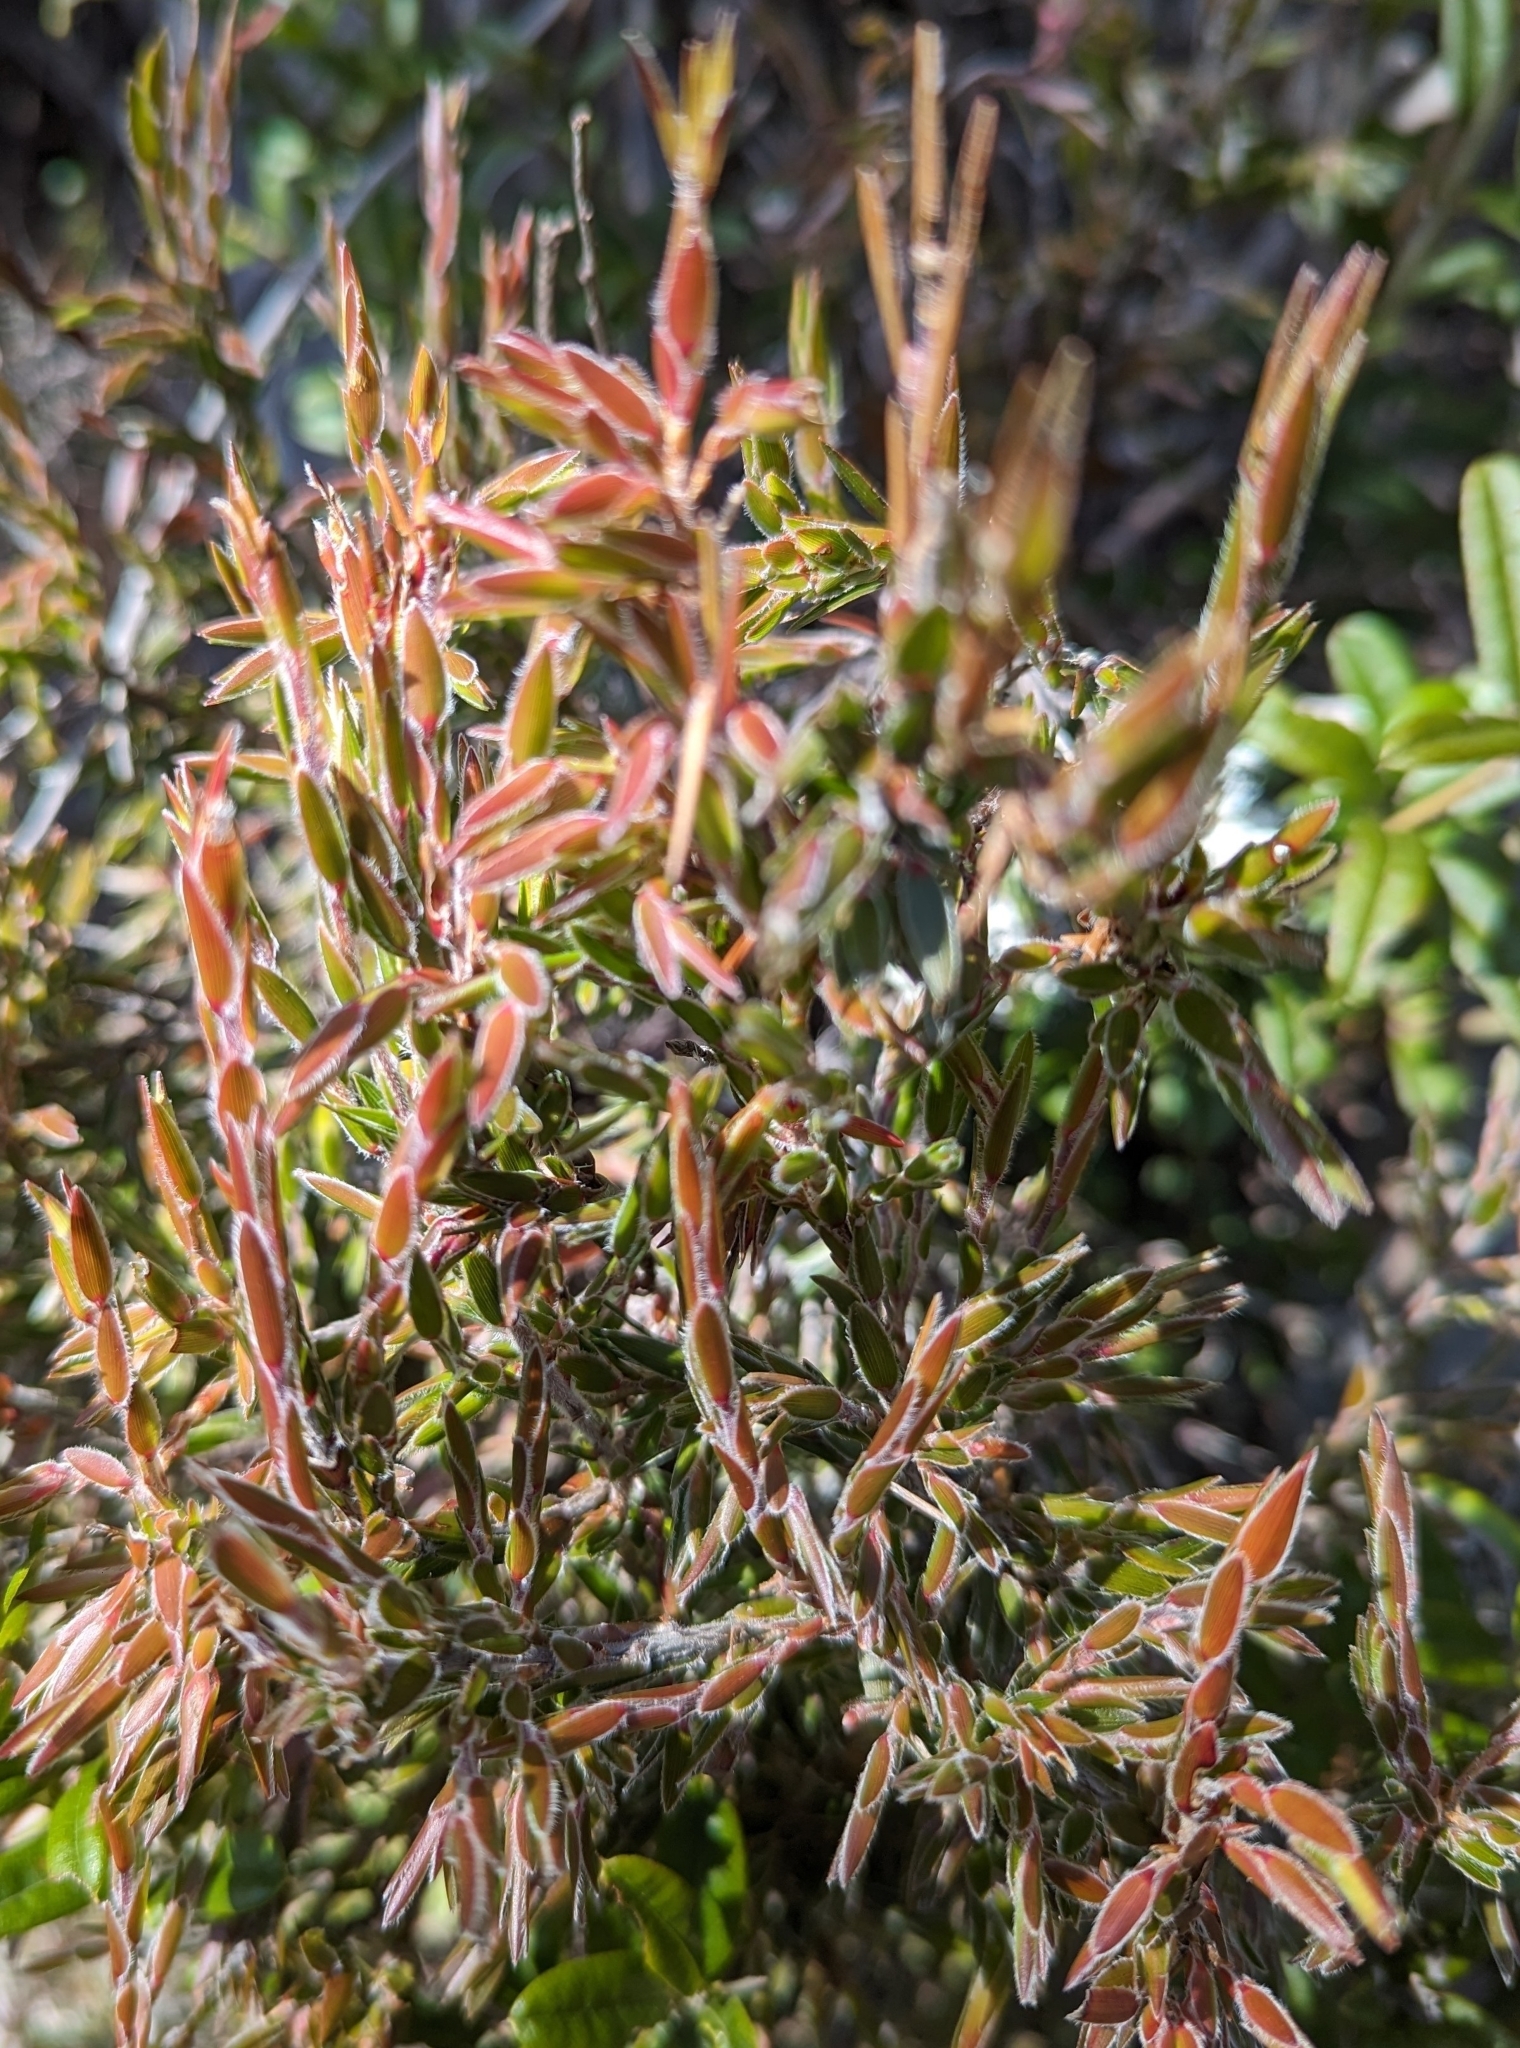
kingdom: Plantae
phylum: Tracheophyta
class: Magnoliopsida
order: Ericales
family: Ericaceae
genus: Pentachondra
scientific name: Pentachondra involucrata
